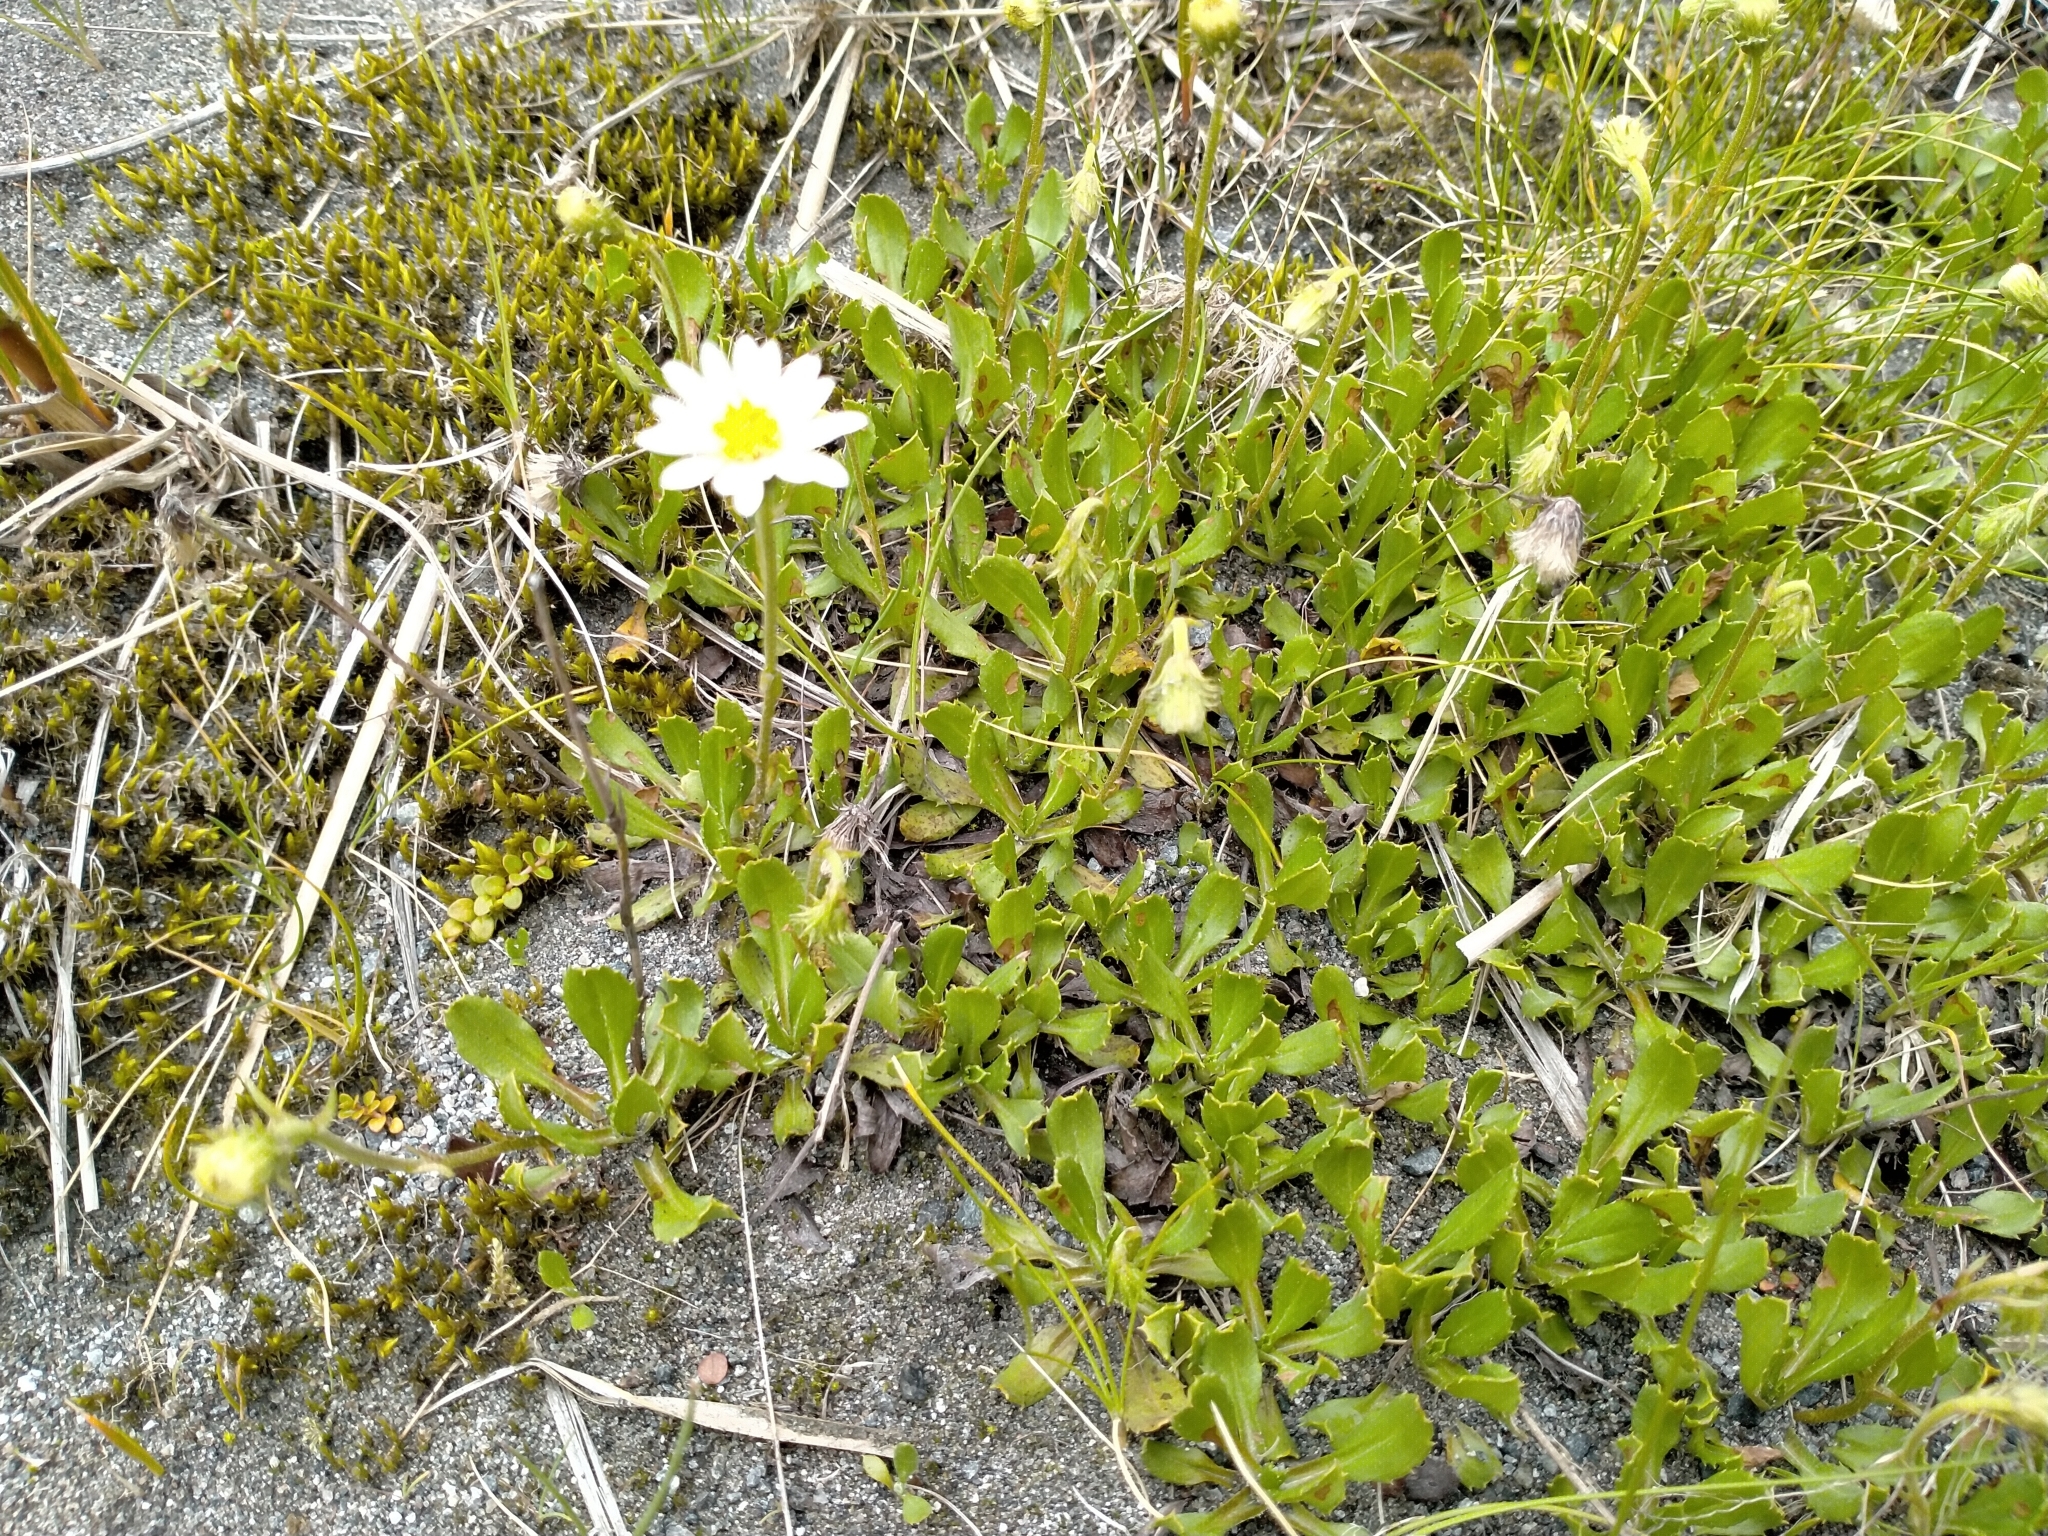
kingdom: Plantae
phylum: Tracheophyta
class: Magnoliopsida
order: Asterales
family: Asteraceae
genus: Celmisia
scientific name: Celmisia glandulosa
